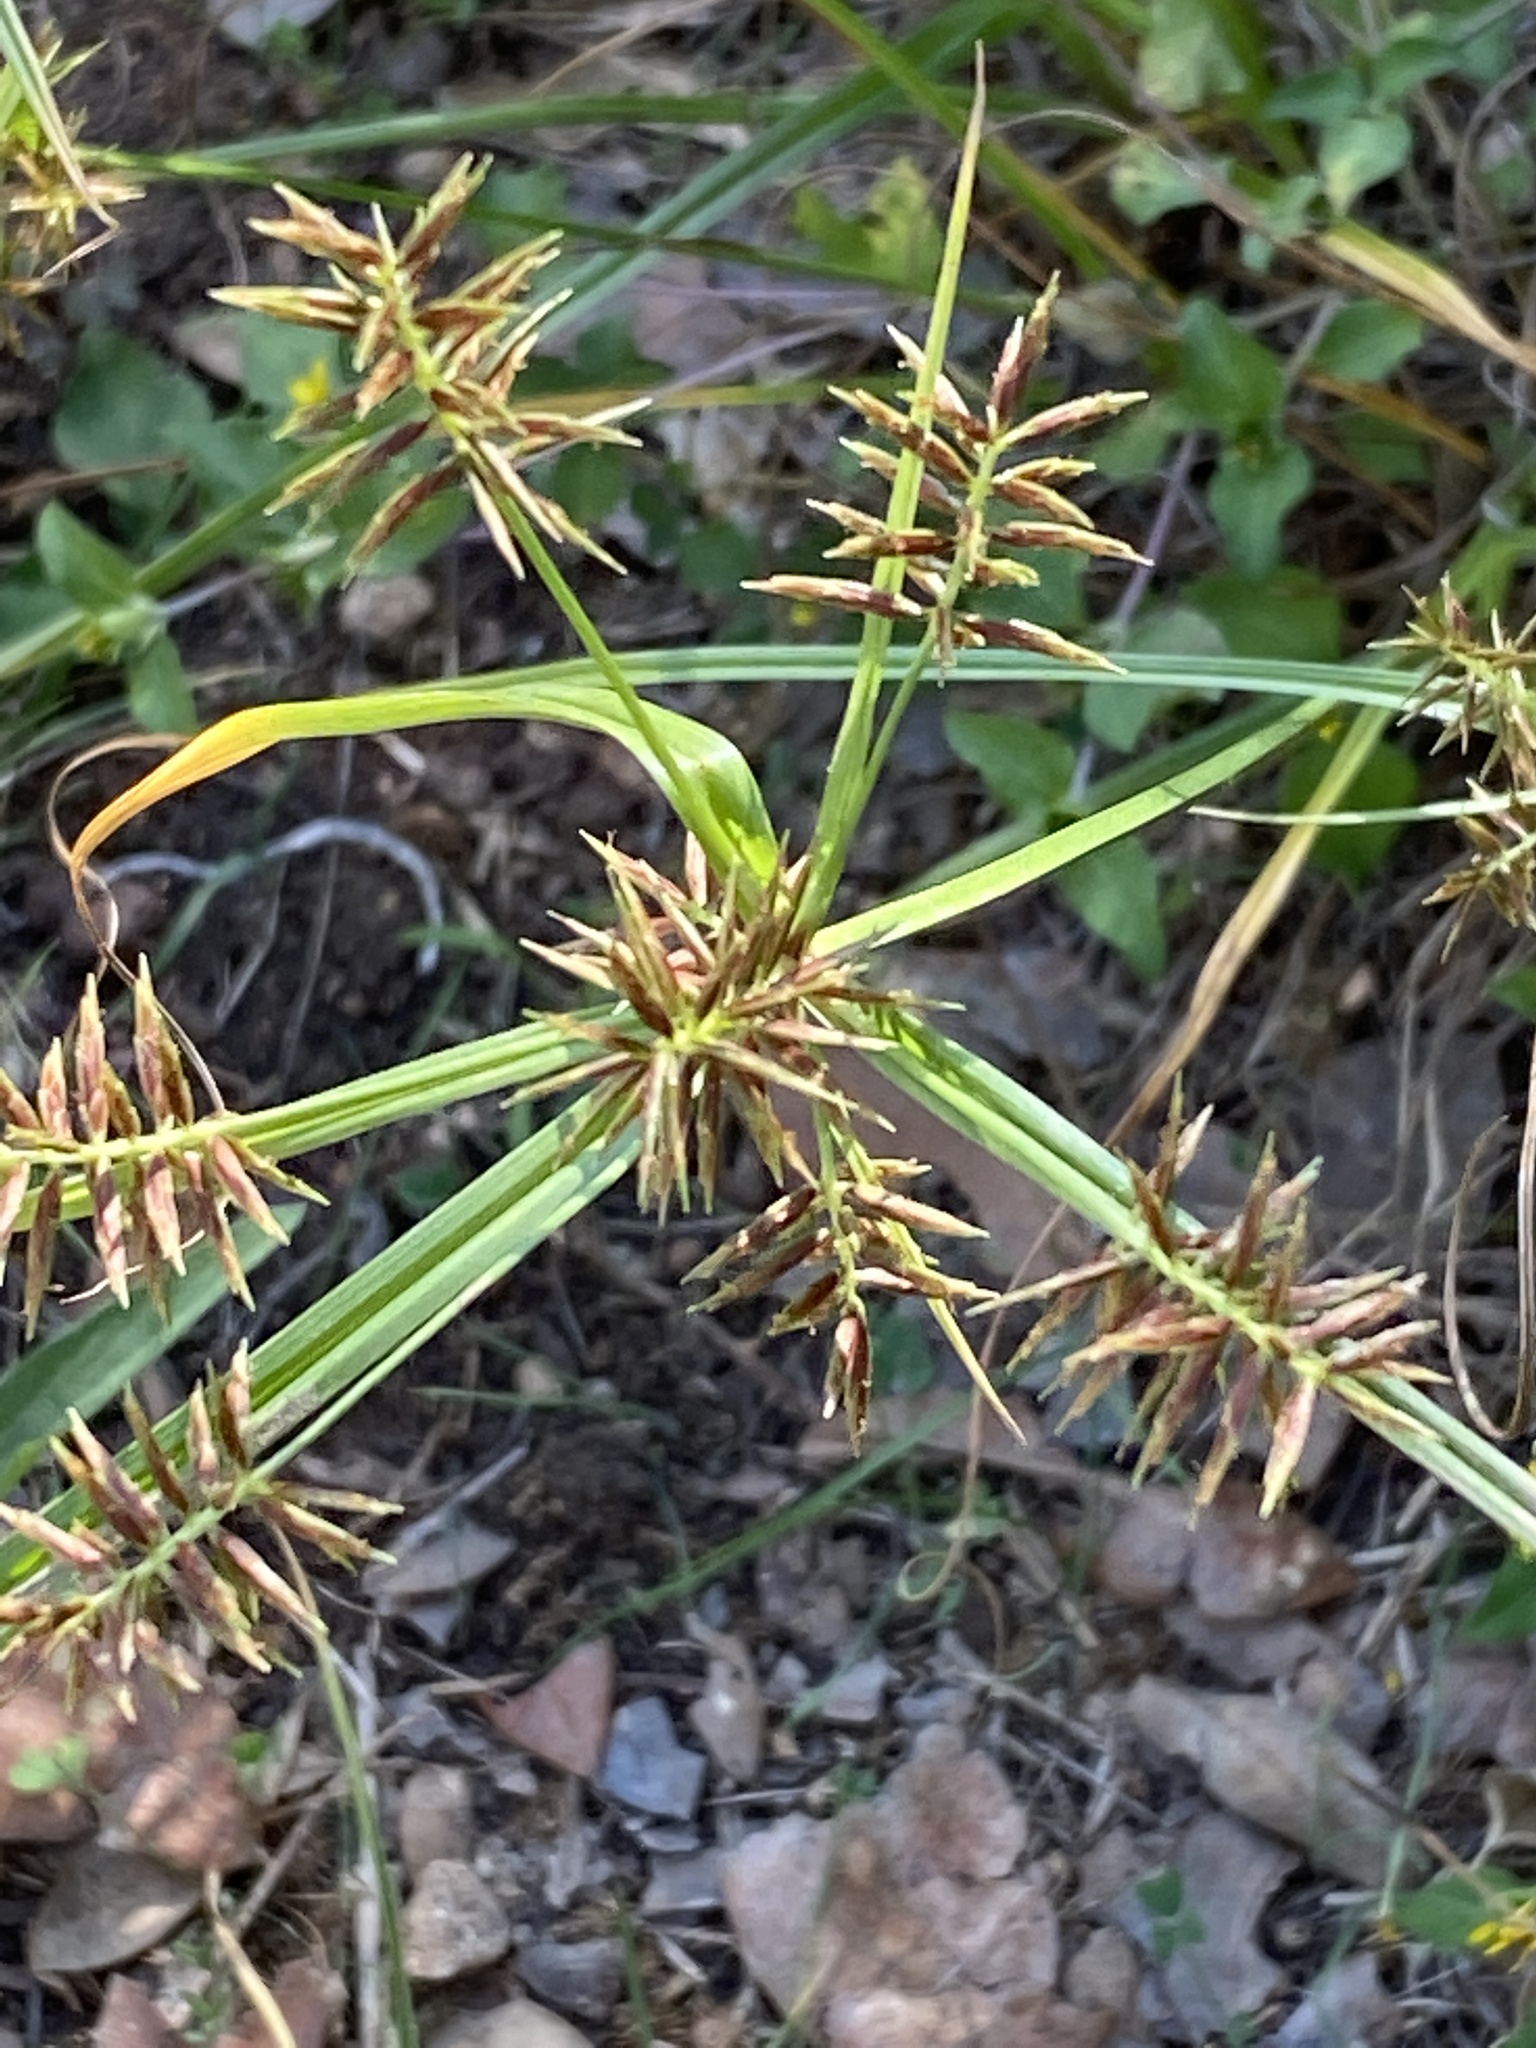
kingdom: Plantae
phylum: Tracheophyta
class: Liliopsida
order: Poales
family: Cyperaceae
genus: Cyperus
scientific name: Cyperus esculentus
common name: Yellow nutsedge
